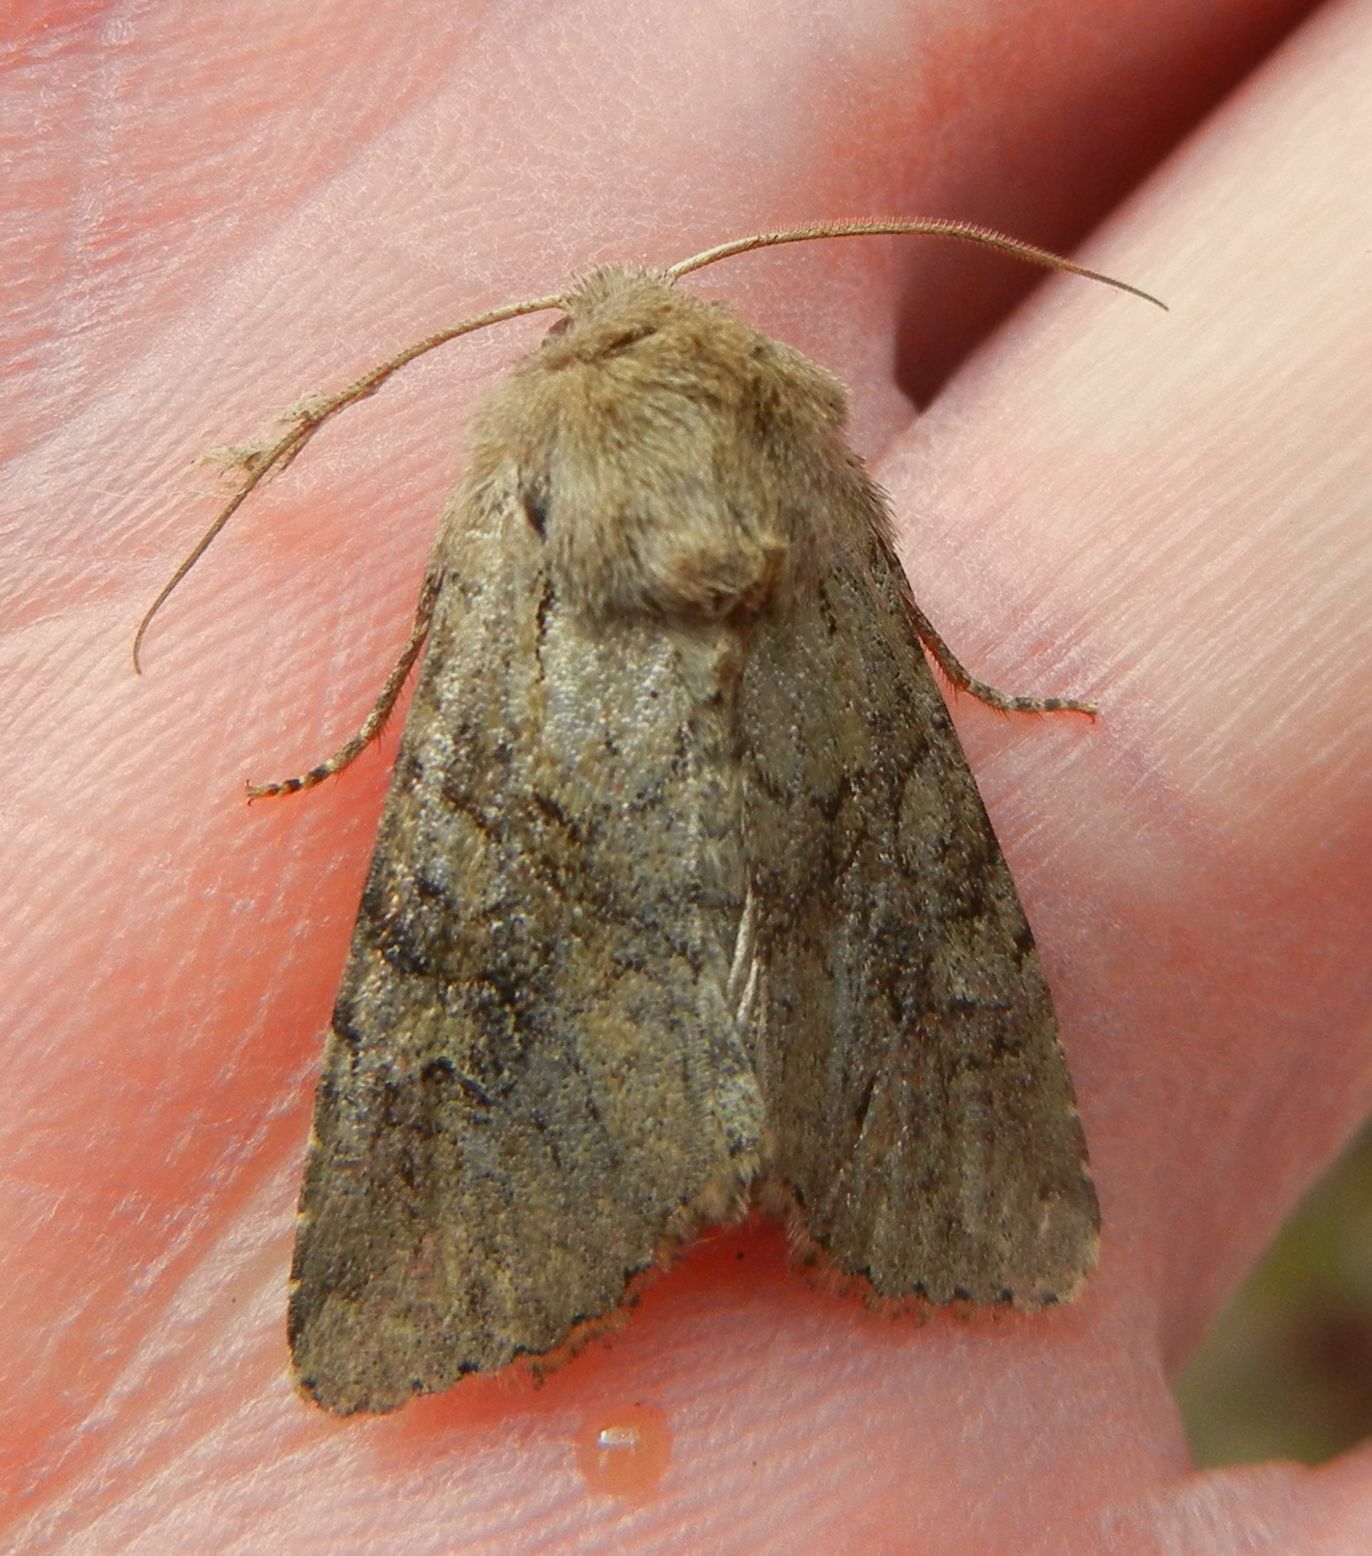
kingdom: Animalia
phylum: Arthropoda
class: Insecta
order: Lepidoptera
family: Noctuidae
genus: Apamea
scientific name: Apamea sordens
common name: Rustic shoulder-knot
